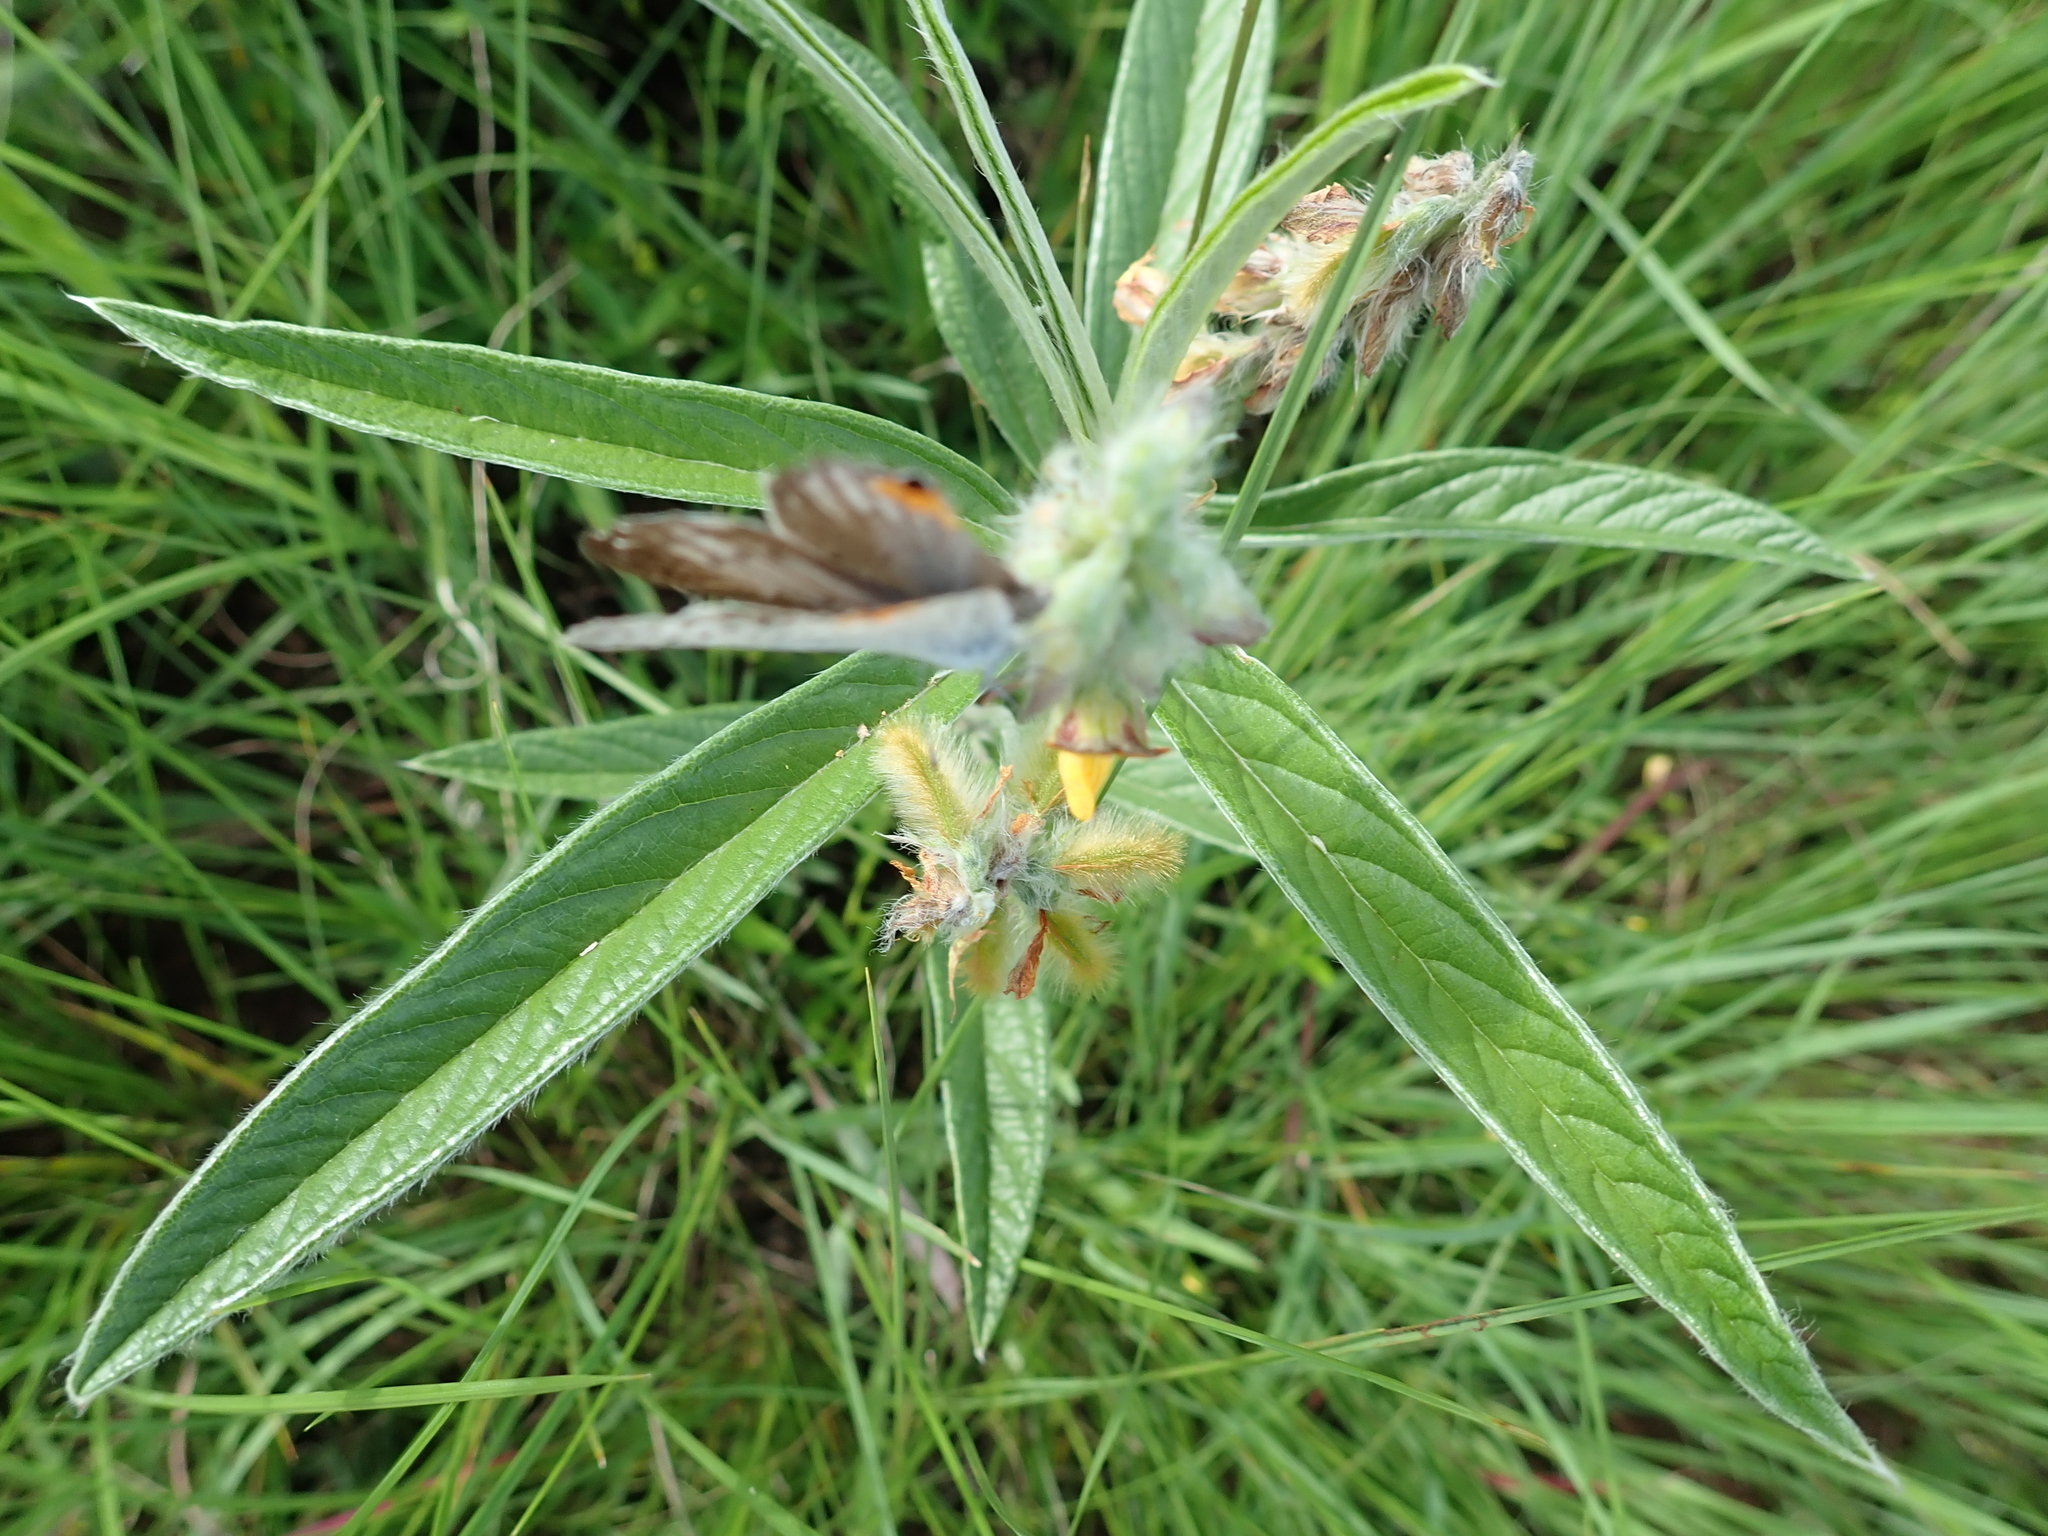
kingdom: Plantae
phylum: Tracheophyta
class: Magnoliopsida
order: Fabales
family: Fabaceae
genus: Eriosema
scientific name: Eriosema salignum
